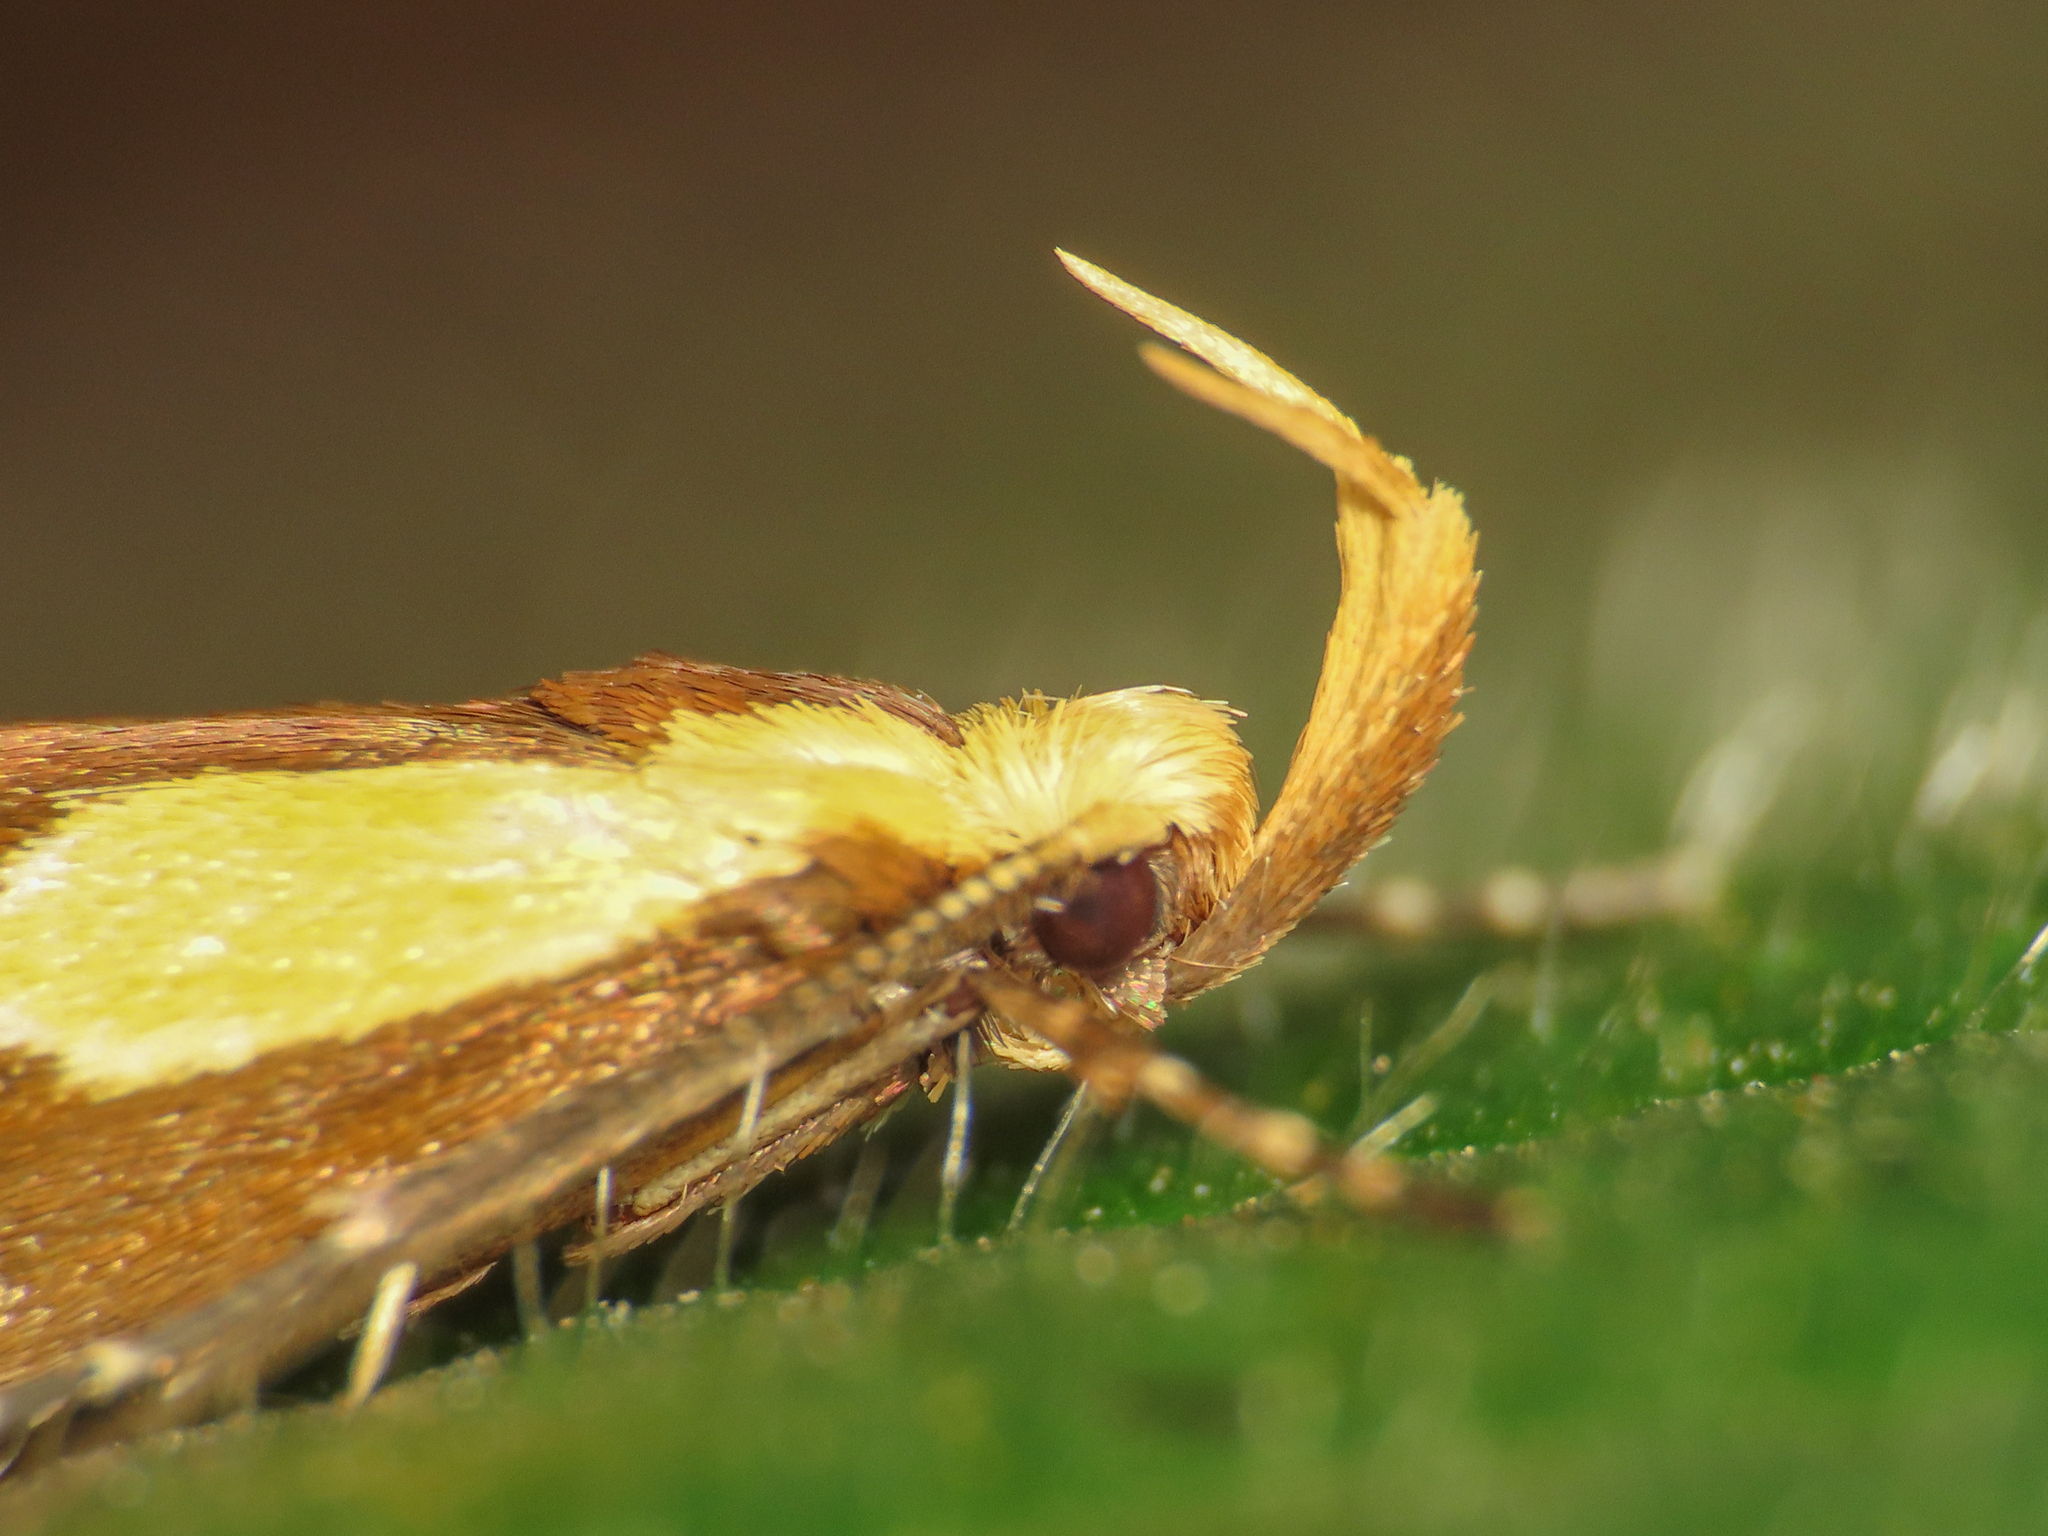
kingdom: Animalia
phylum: Arthropoda
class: Insecta
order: Lepidoptera
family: Oecophoridae
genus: Harpella
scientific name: Harpella forficella
